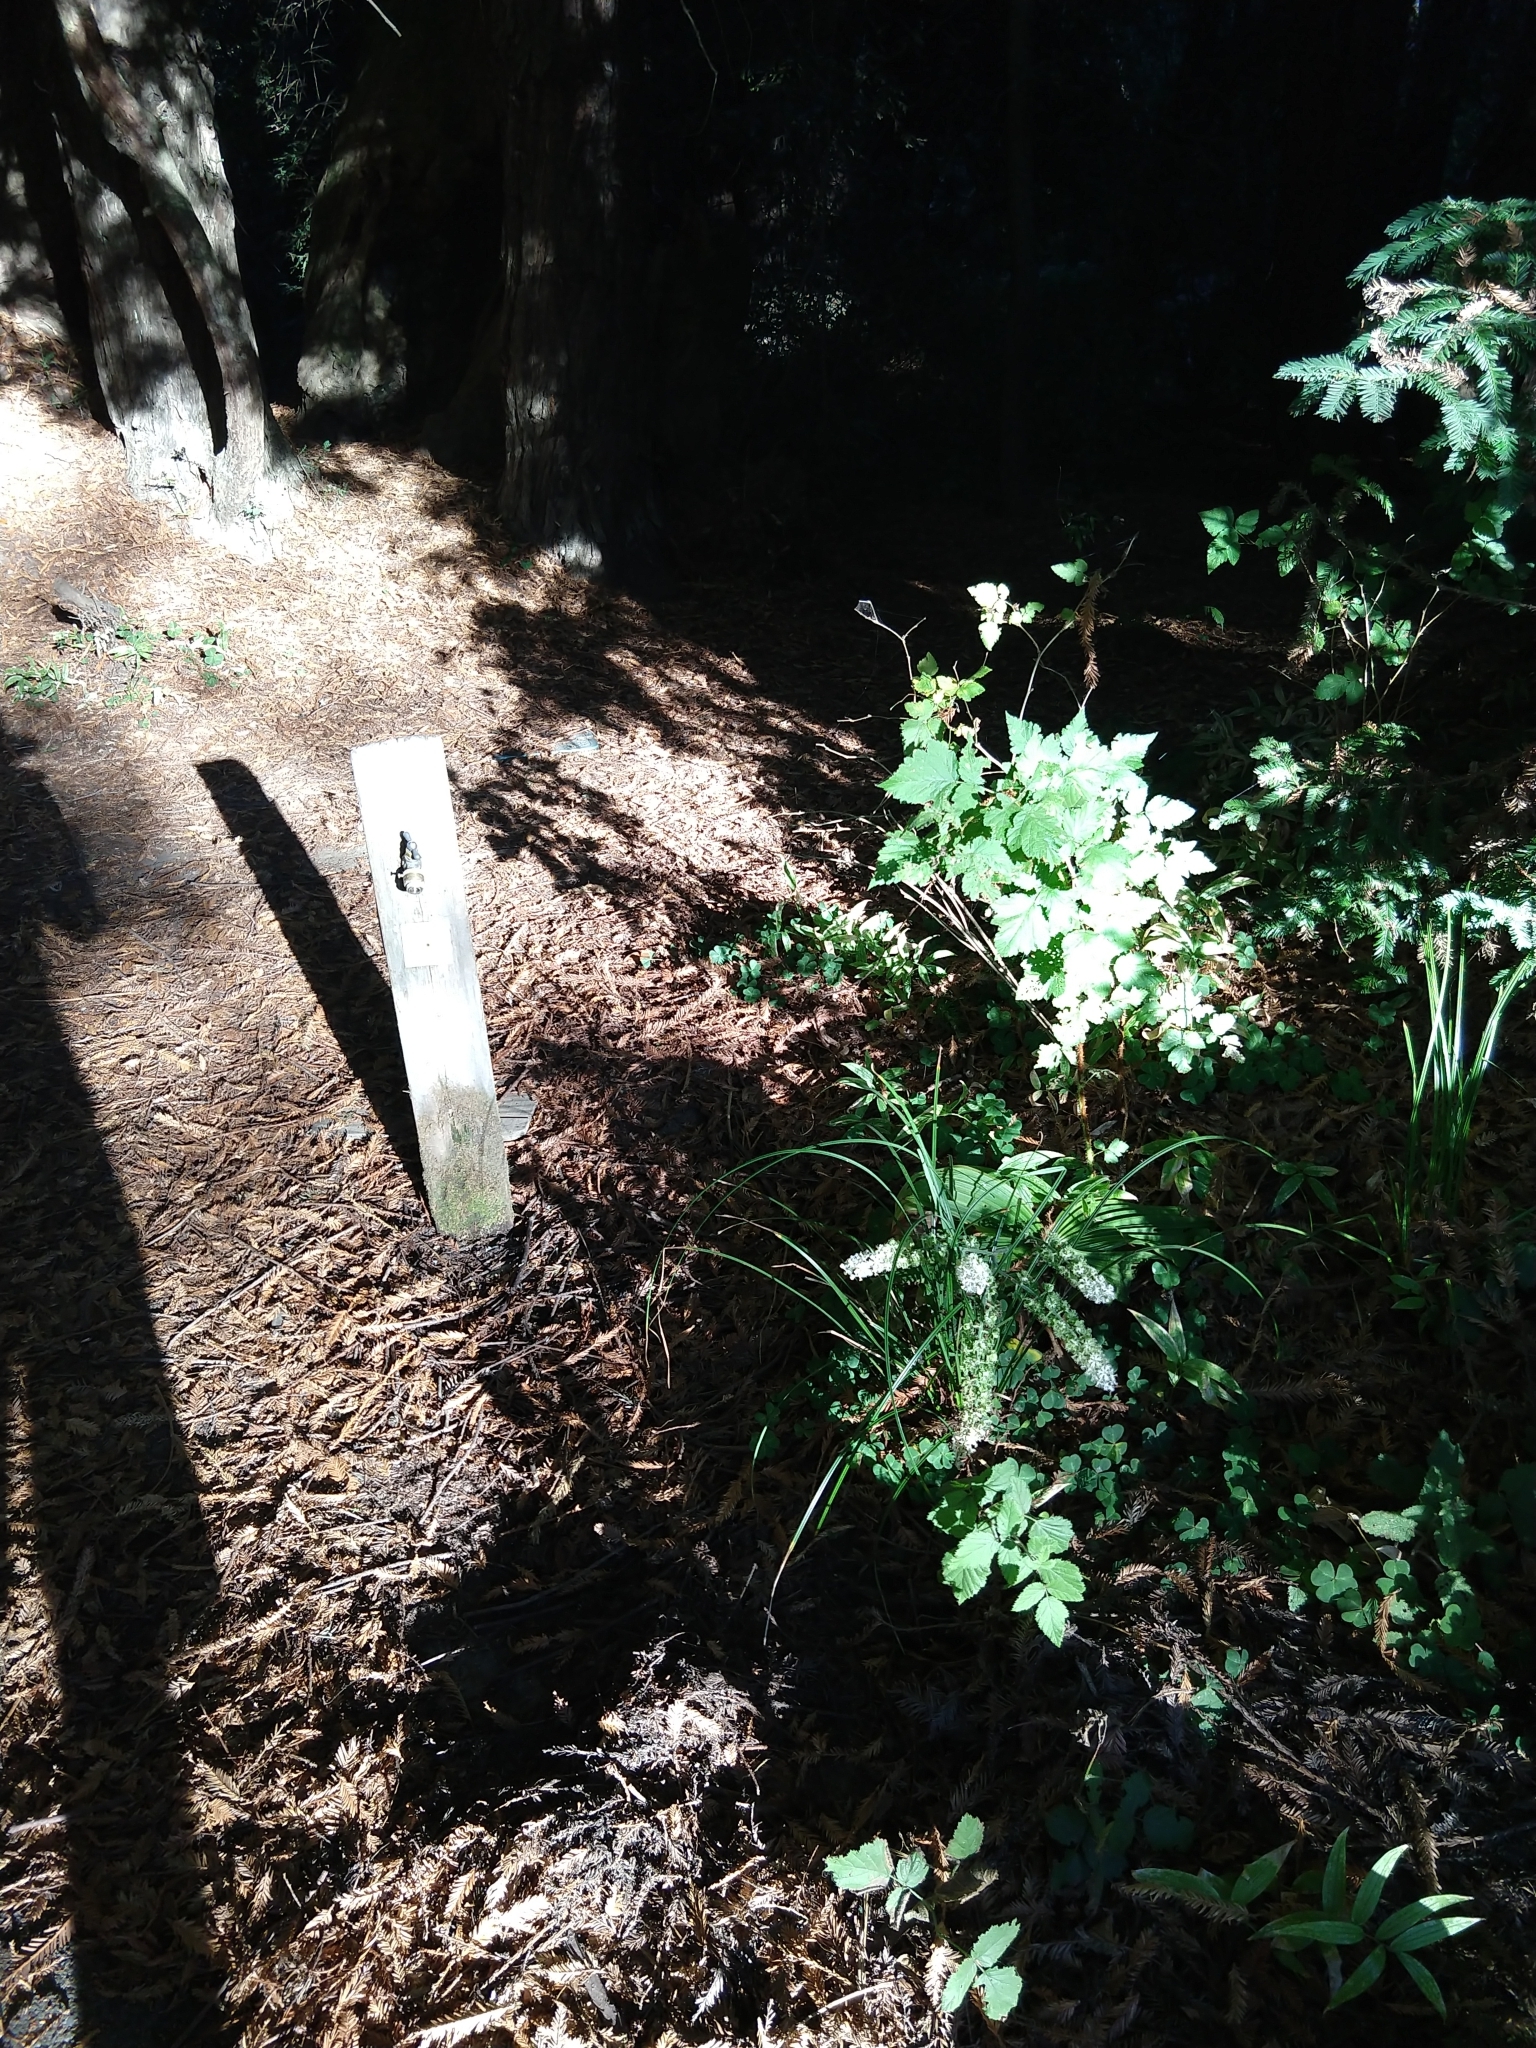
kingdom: Plantae
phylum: Tracheophyta
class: Liliopsida
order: Liliales
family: Melanthiaceae
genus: Veratrum
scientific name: Veratrum fimbriatum
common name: Fringe false hellobore
